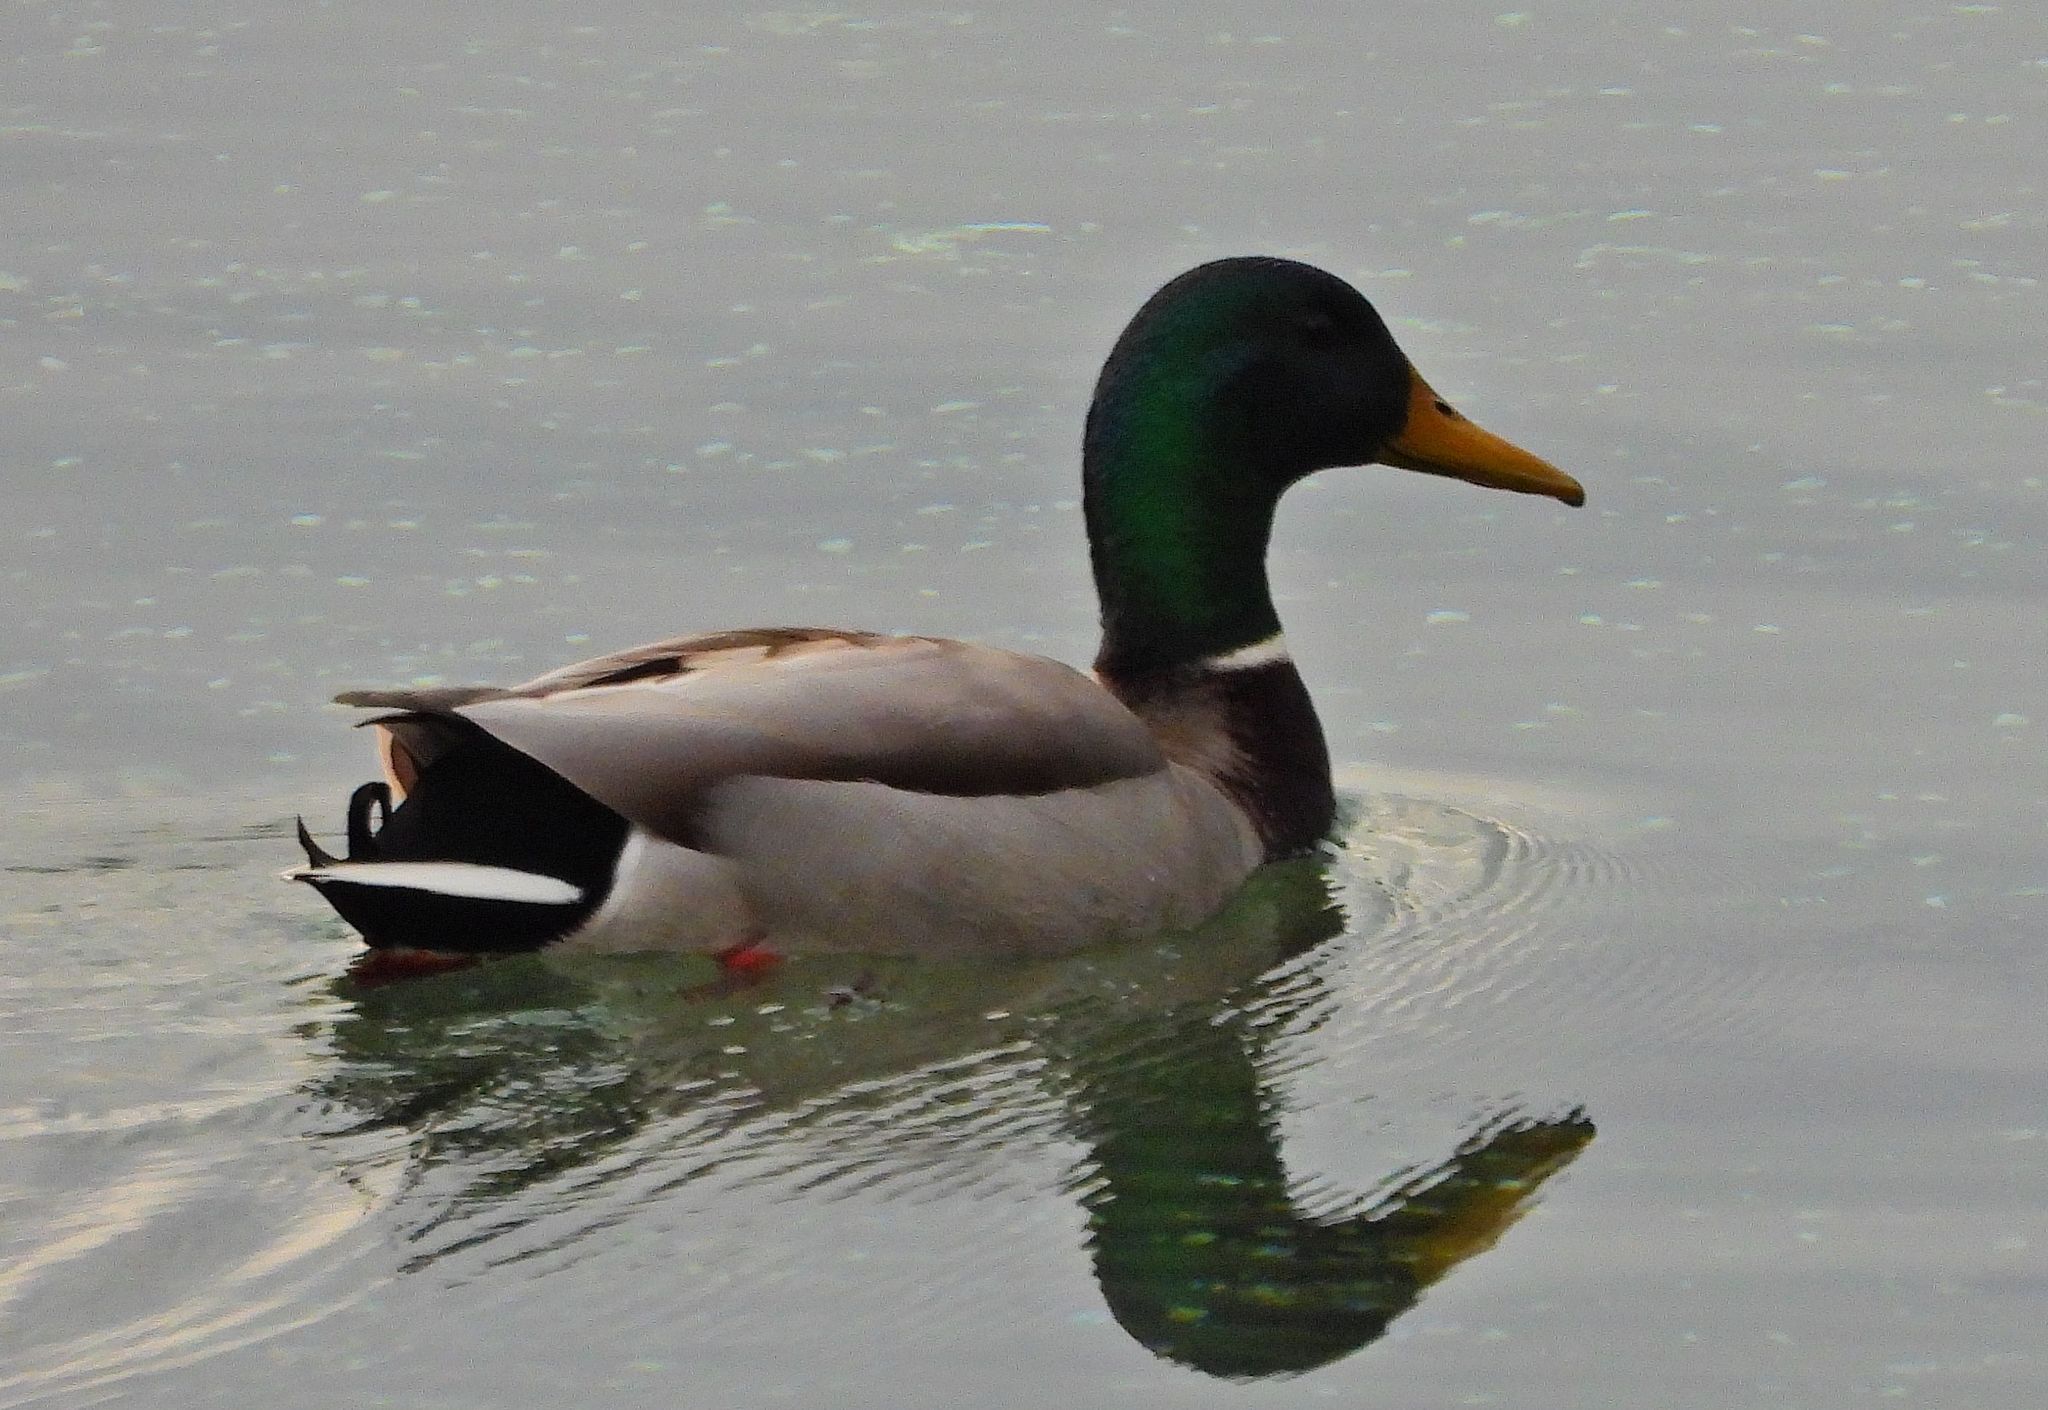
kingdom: Animalia
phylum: Chordata
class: Aves
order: Anseriformes
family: Anatidae
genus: Anas
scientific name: Anas platyrhynchos
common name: Mallard
